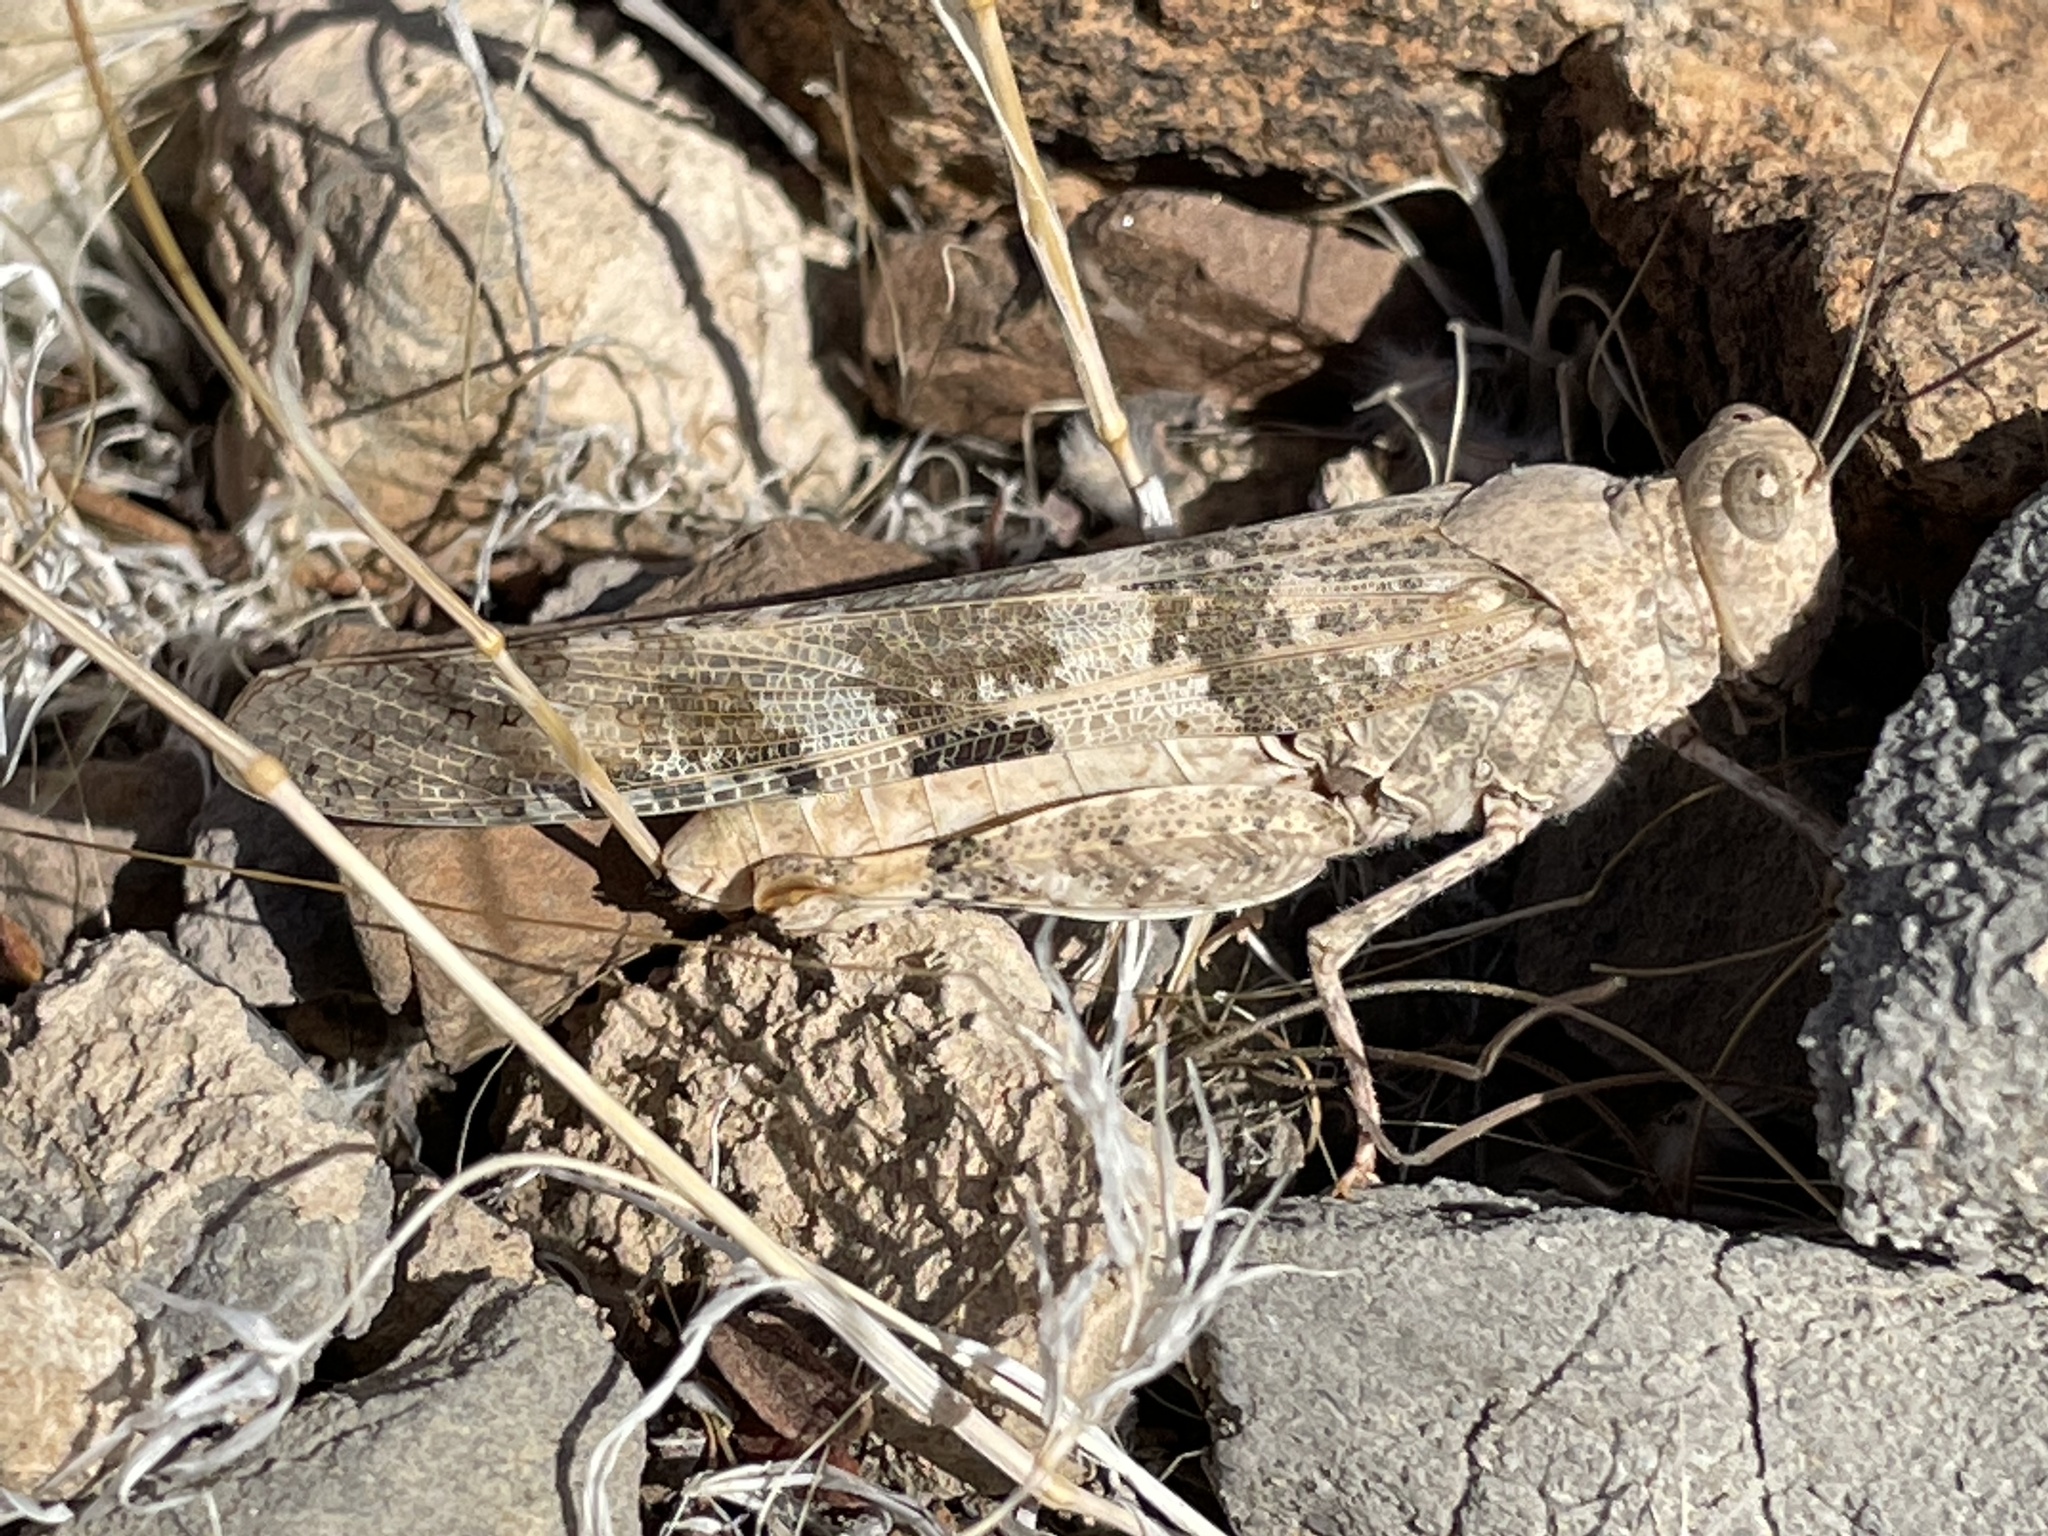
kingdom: Animalia
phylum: Arthropoda
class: Insecta
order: Orthoptera
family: Acrididae
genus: Trimerotropis
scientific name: Trimerotropis pallidipennis
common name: Pallid-winged grasshopper
